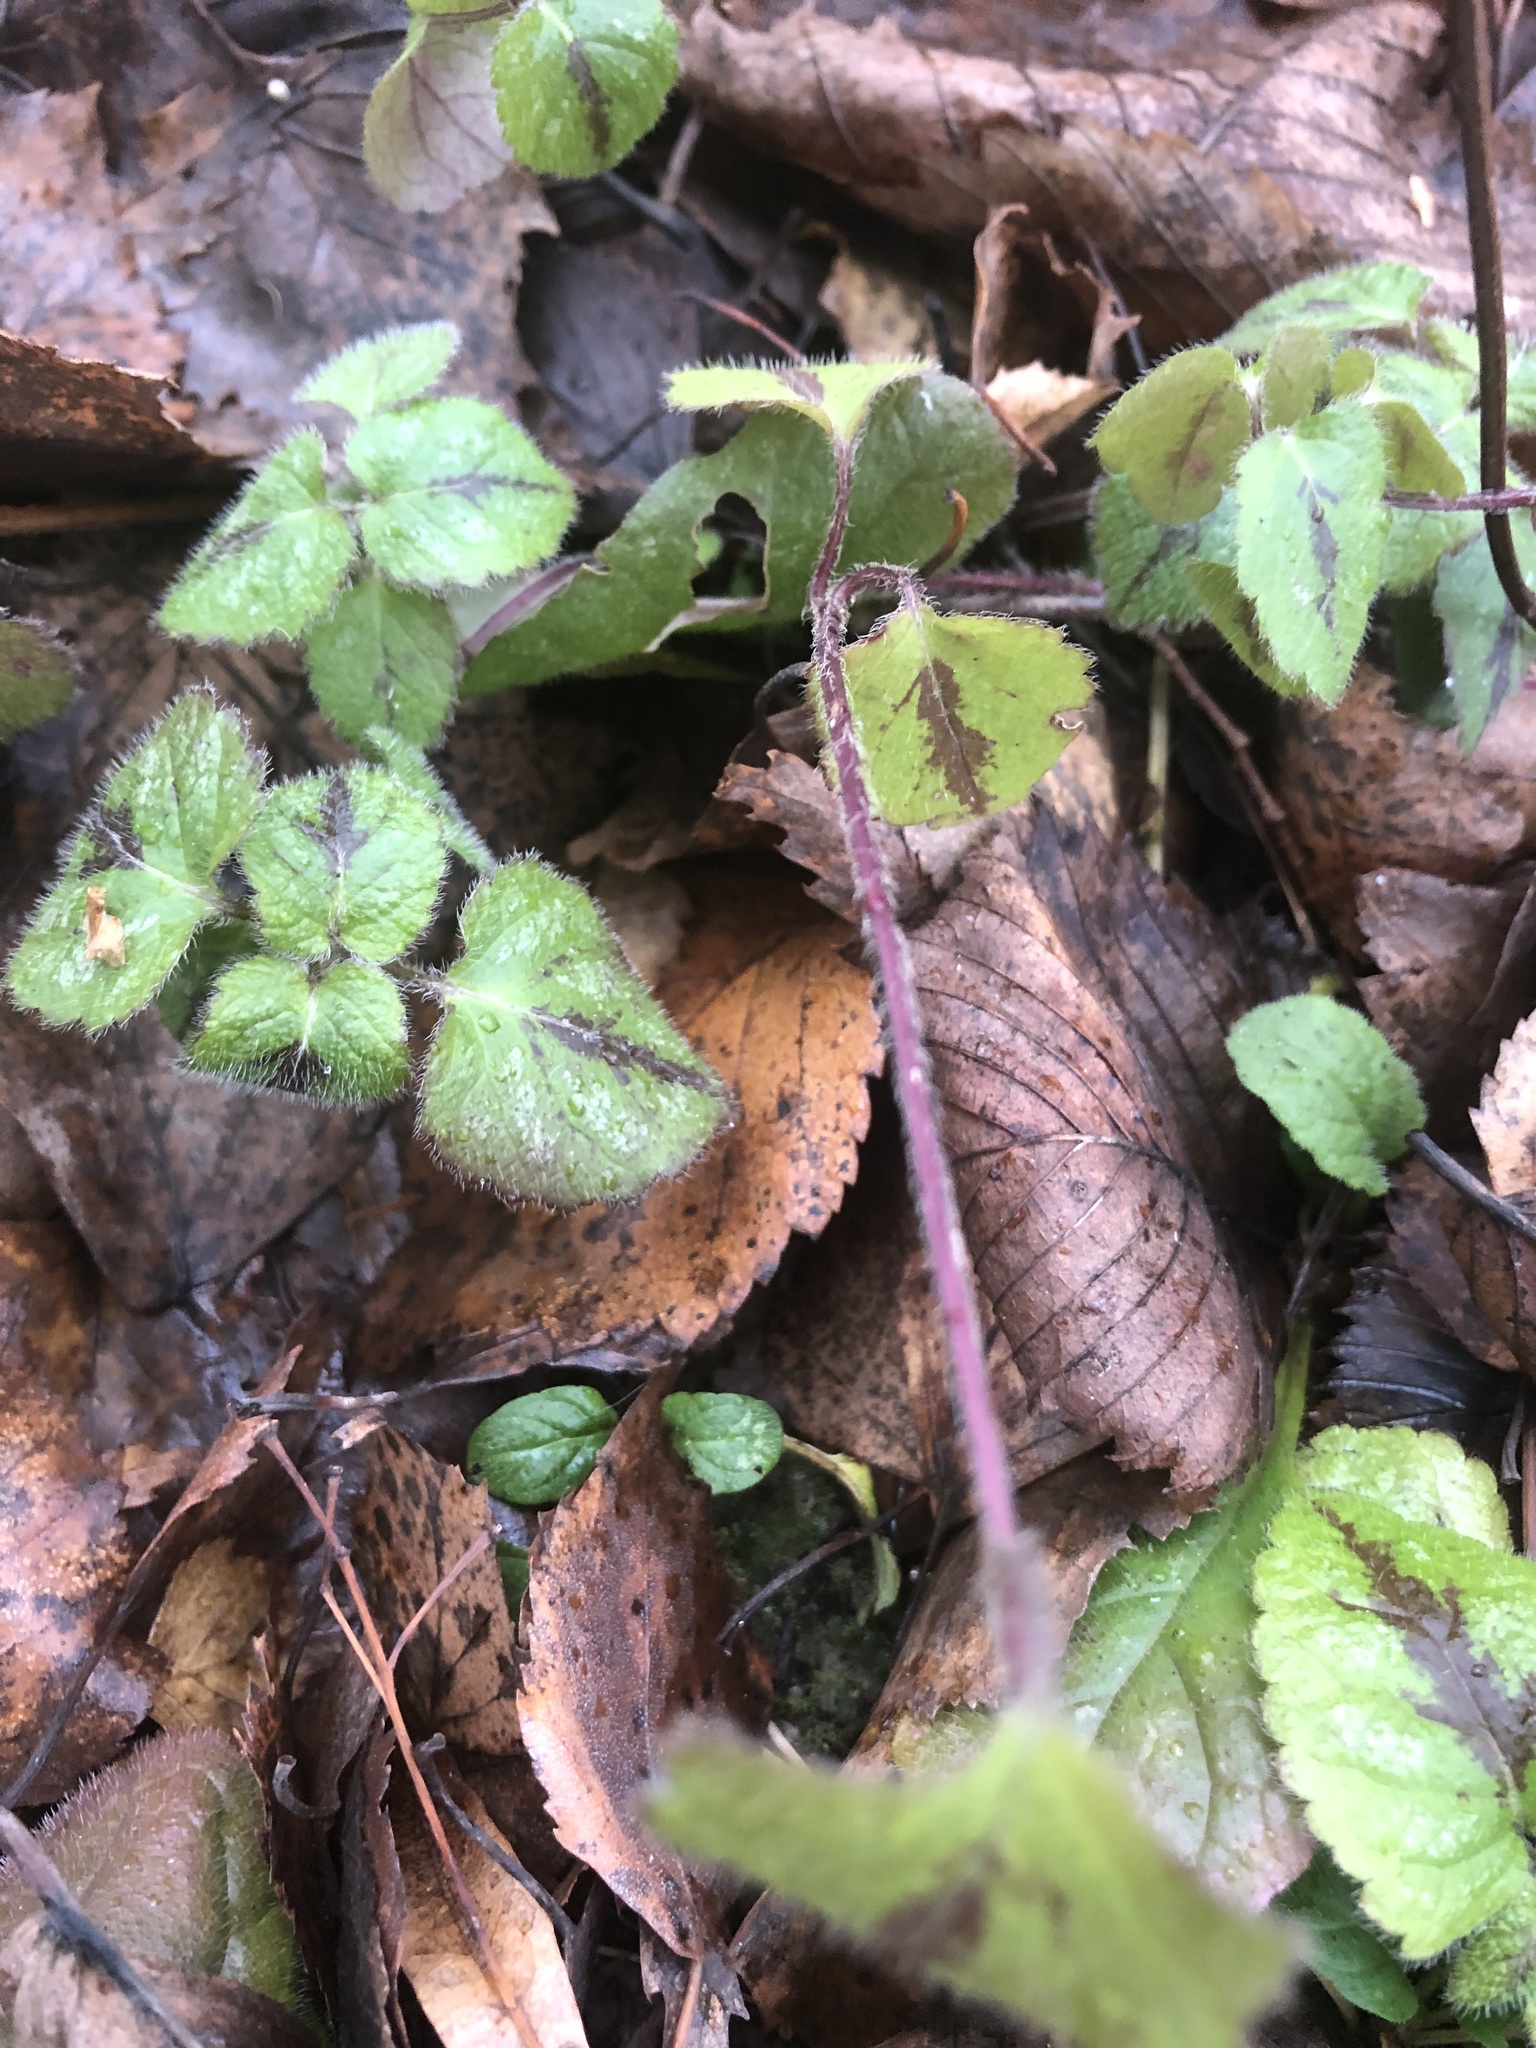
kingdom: Plantae
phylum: Tracheophyta
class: Magnoliopsida
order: Lamiales
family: Lamiaceae
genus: Lamium
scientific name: Lamium galeobdolon
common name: Yellow archangel
